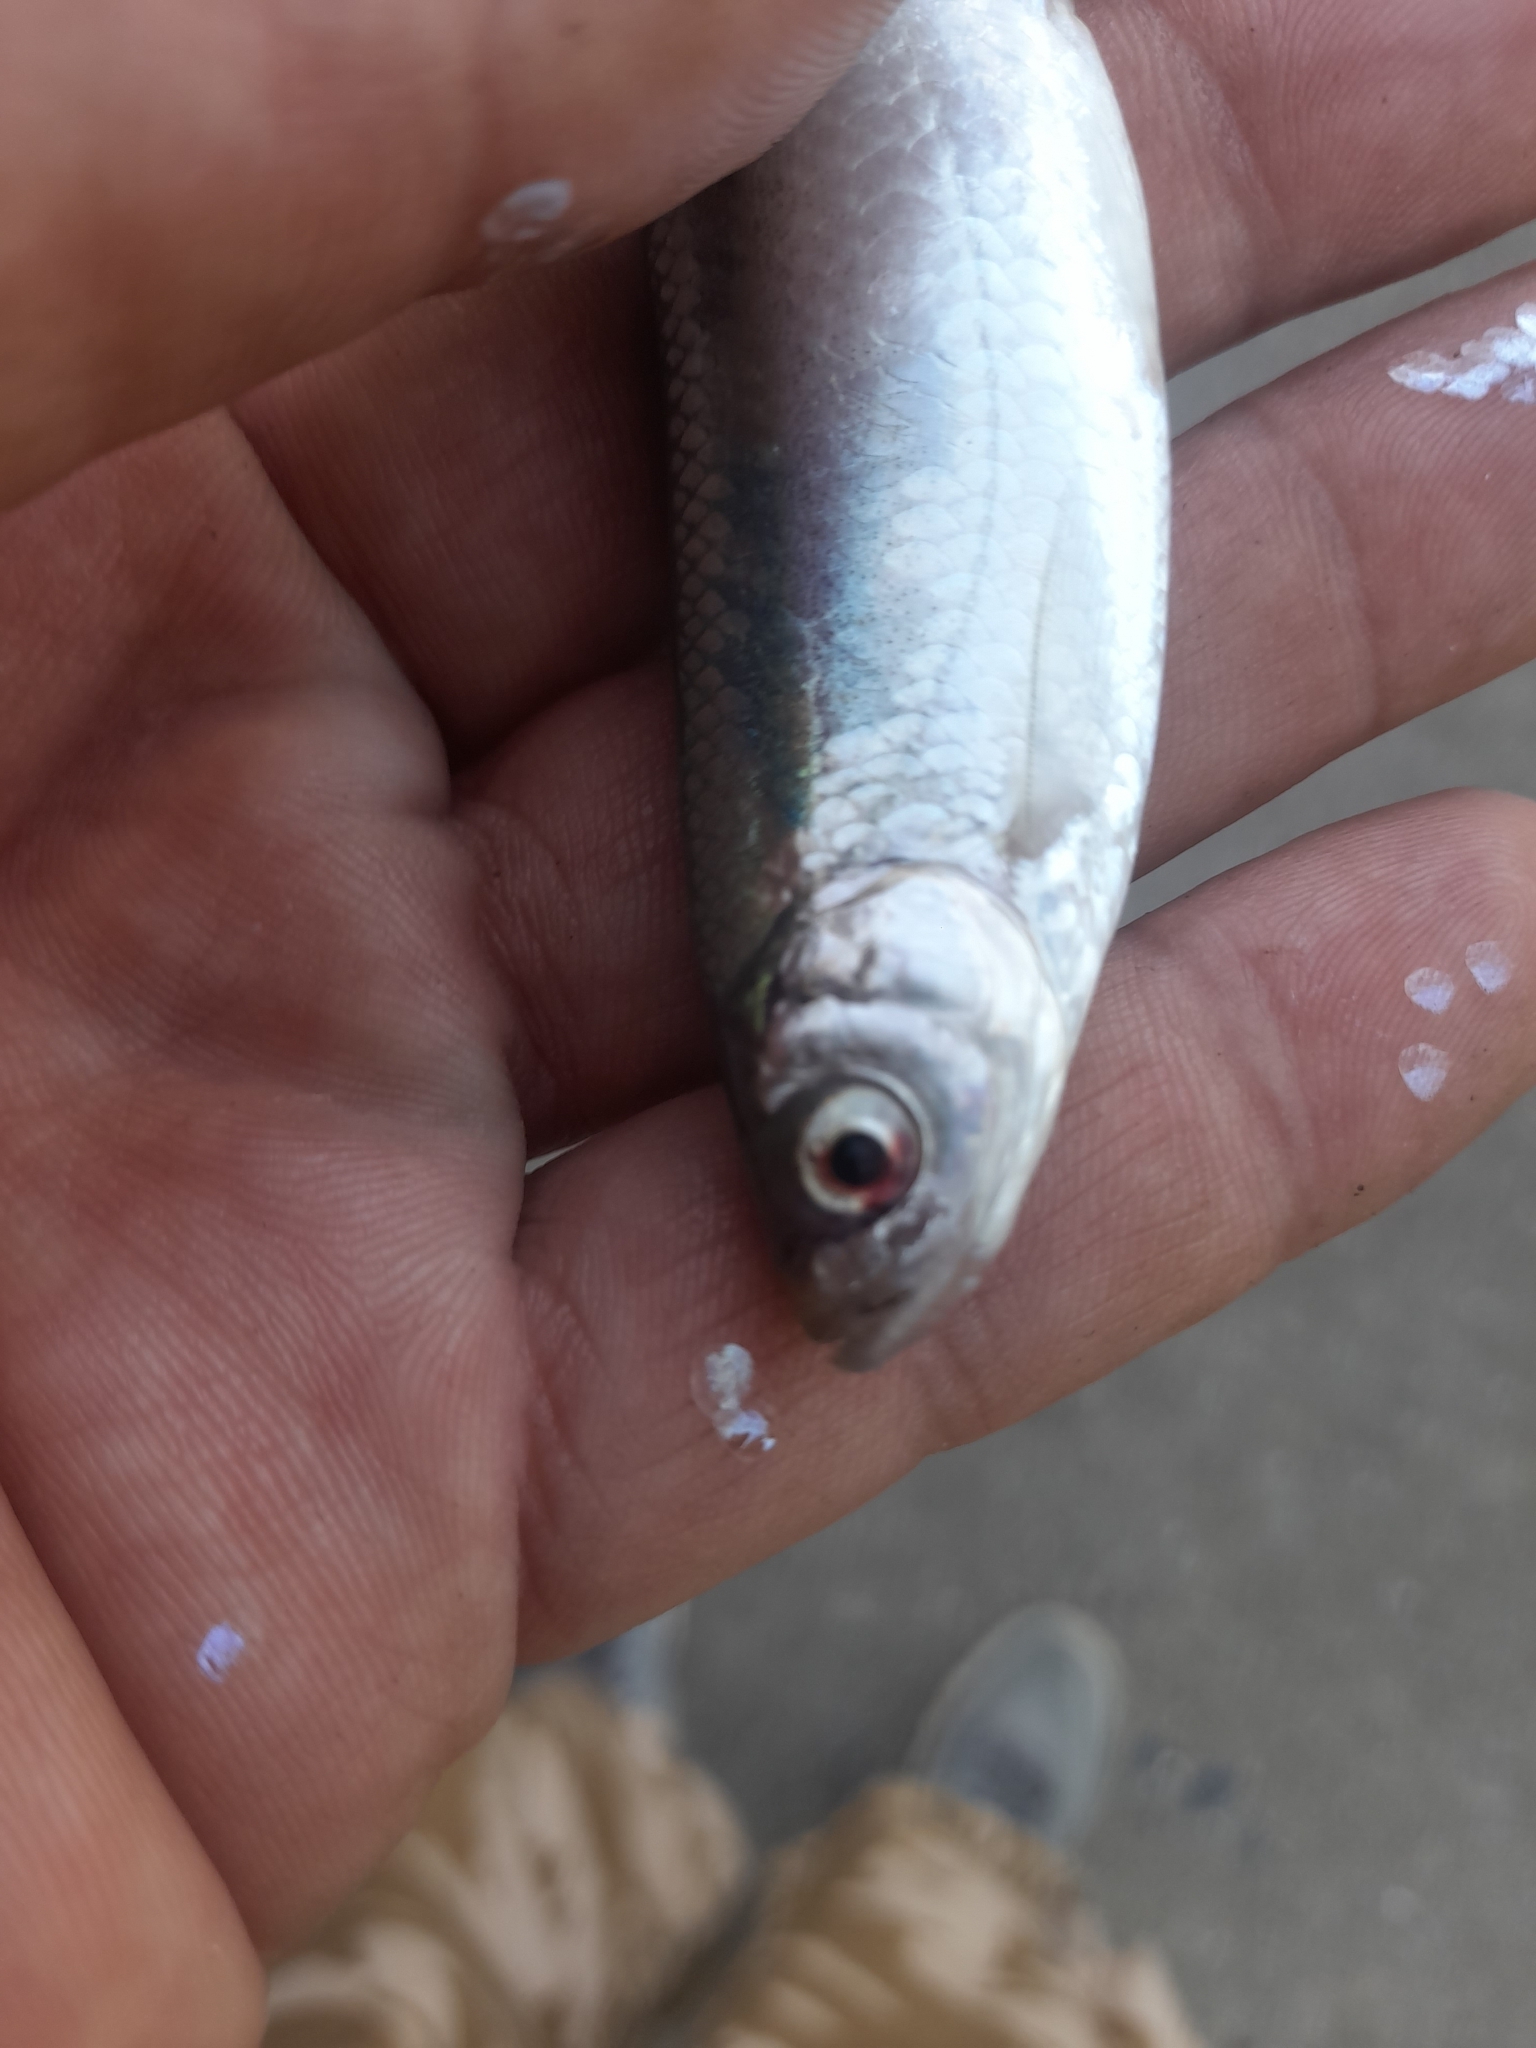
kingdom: Animalia
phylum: Chordata
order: Cypriniformes
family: Cyprinidae
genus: Alburnus
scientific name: Alburnus arborella
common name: Alborella
